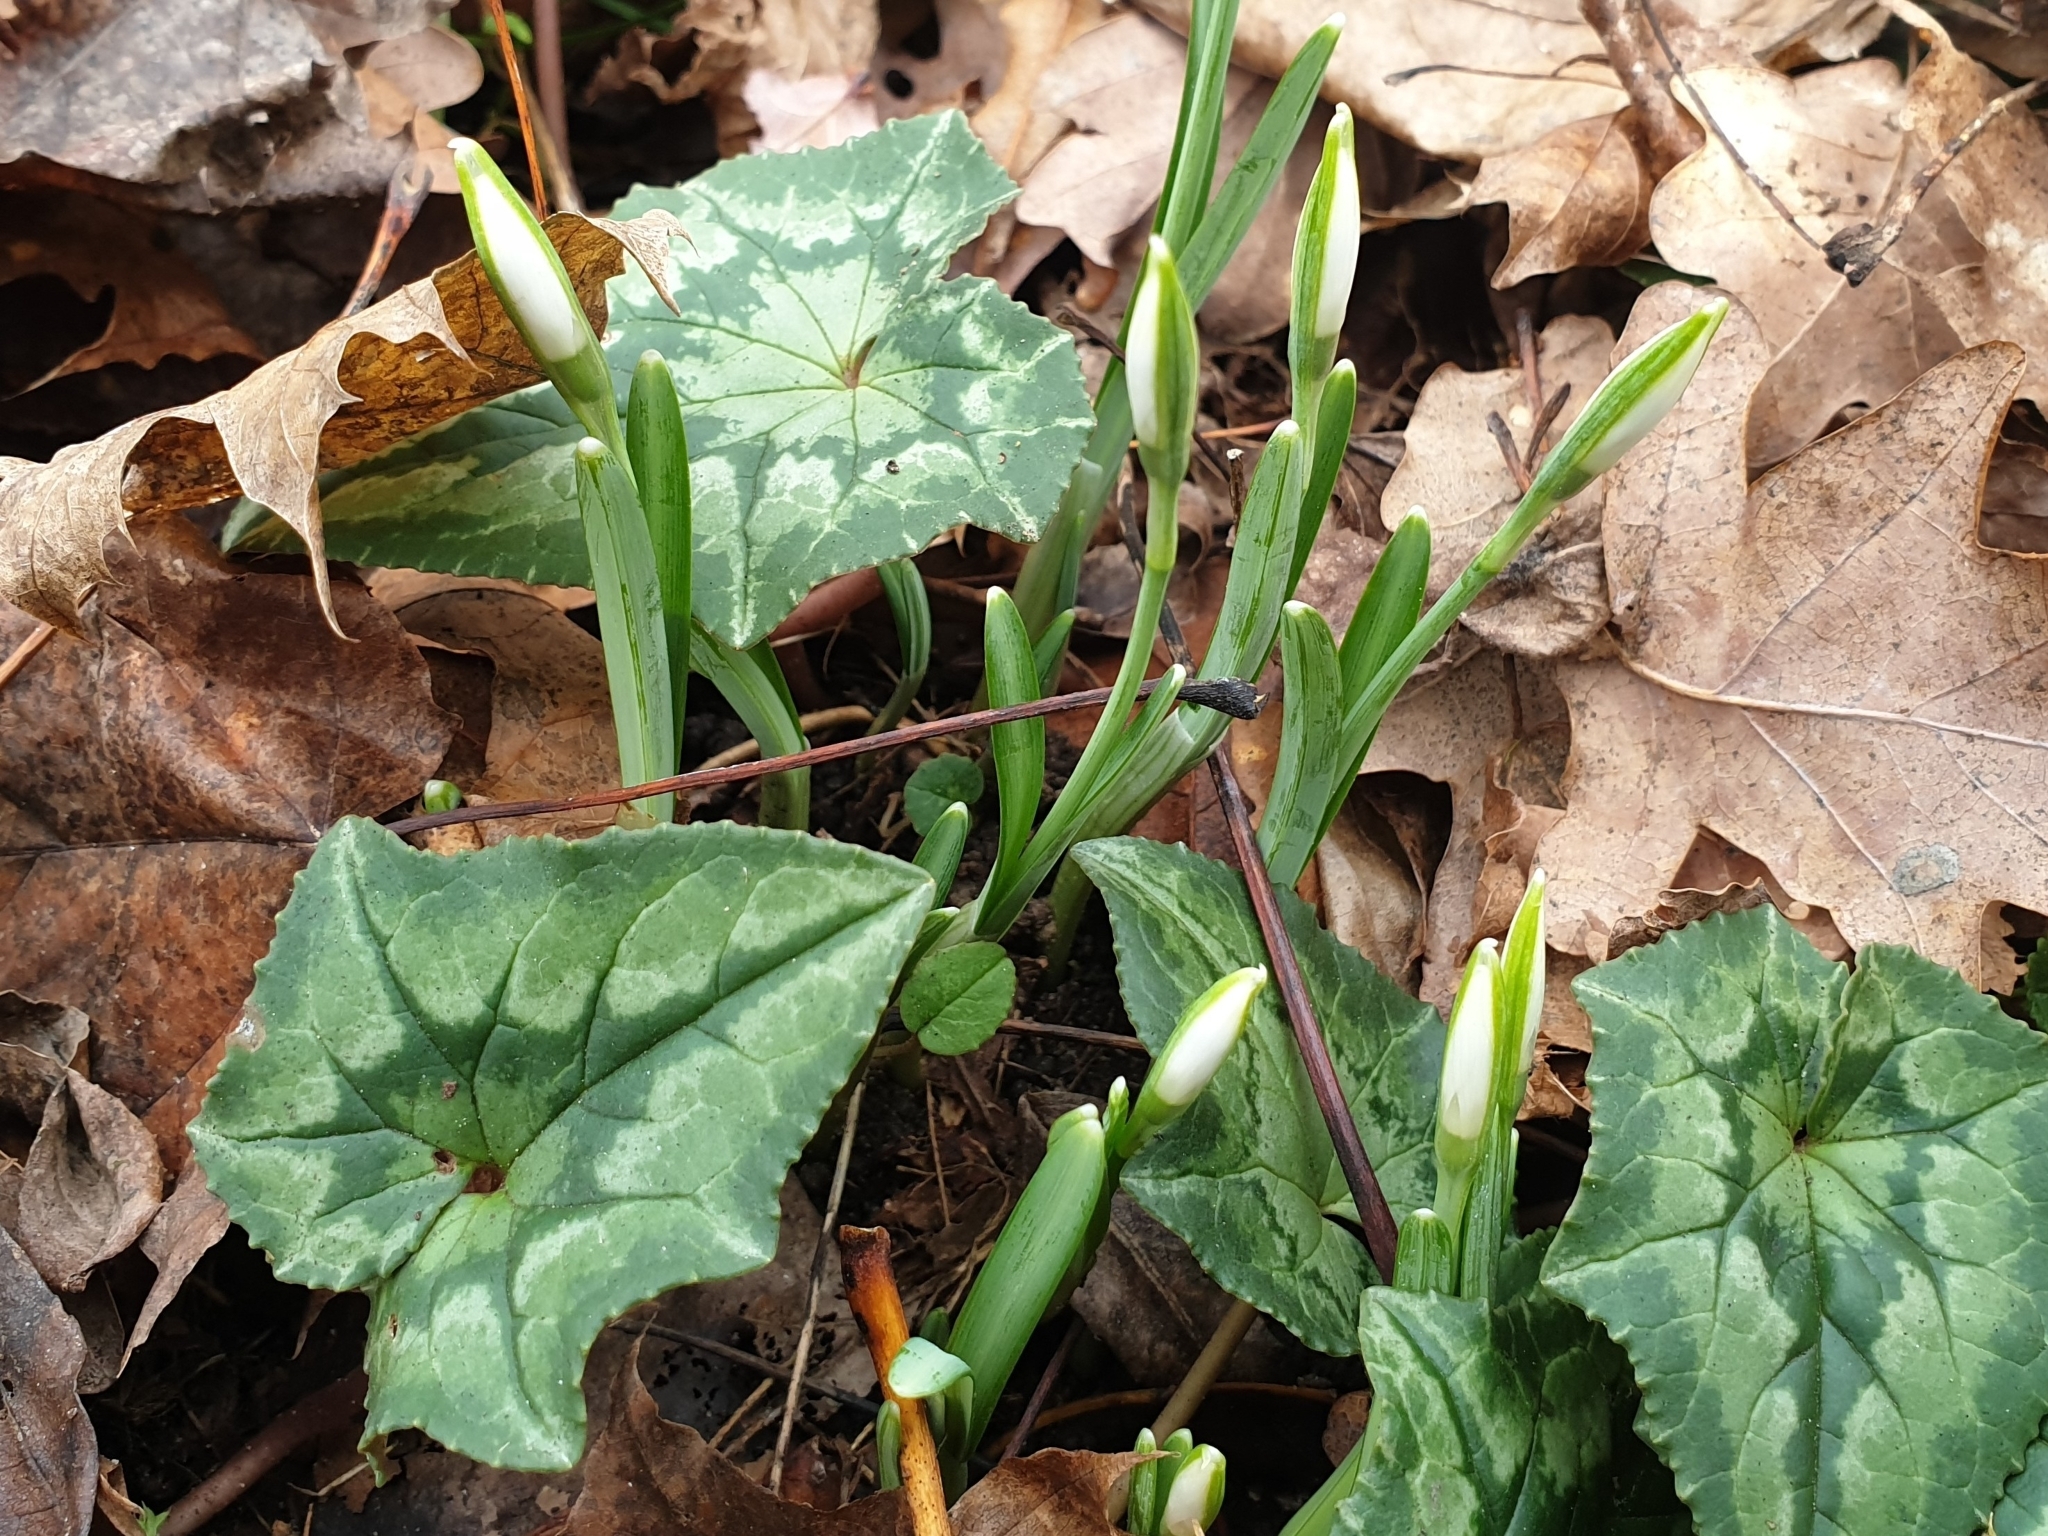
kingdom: Plantae
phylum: Tracheophyta
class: Liliopsida
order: Asparagales
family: Amaryllidaceae
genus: Galanthus
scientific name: Galanthus nivalis
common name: Snowdrop
